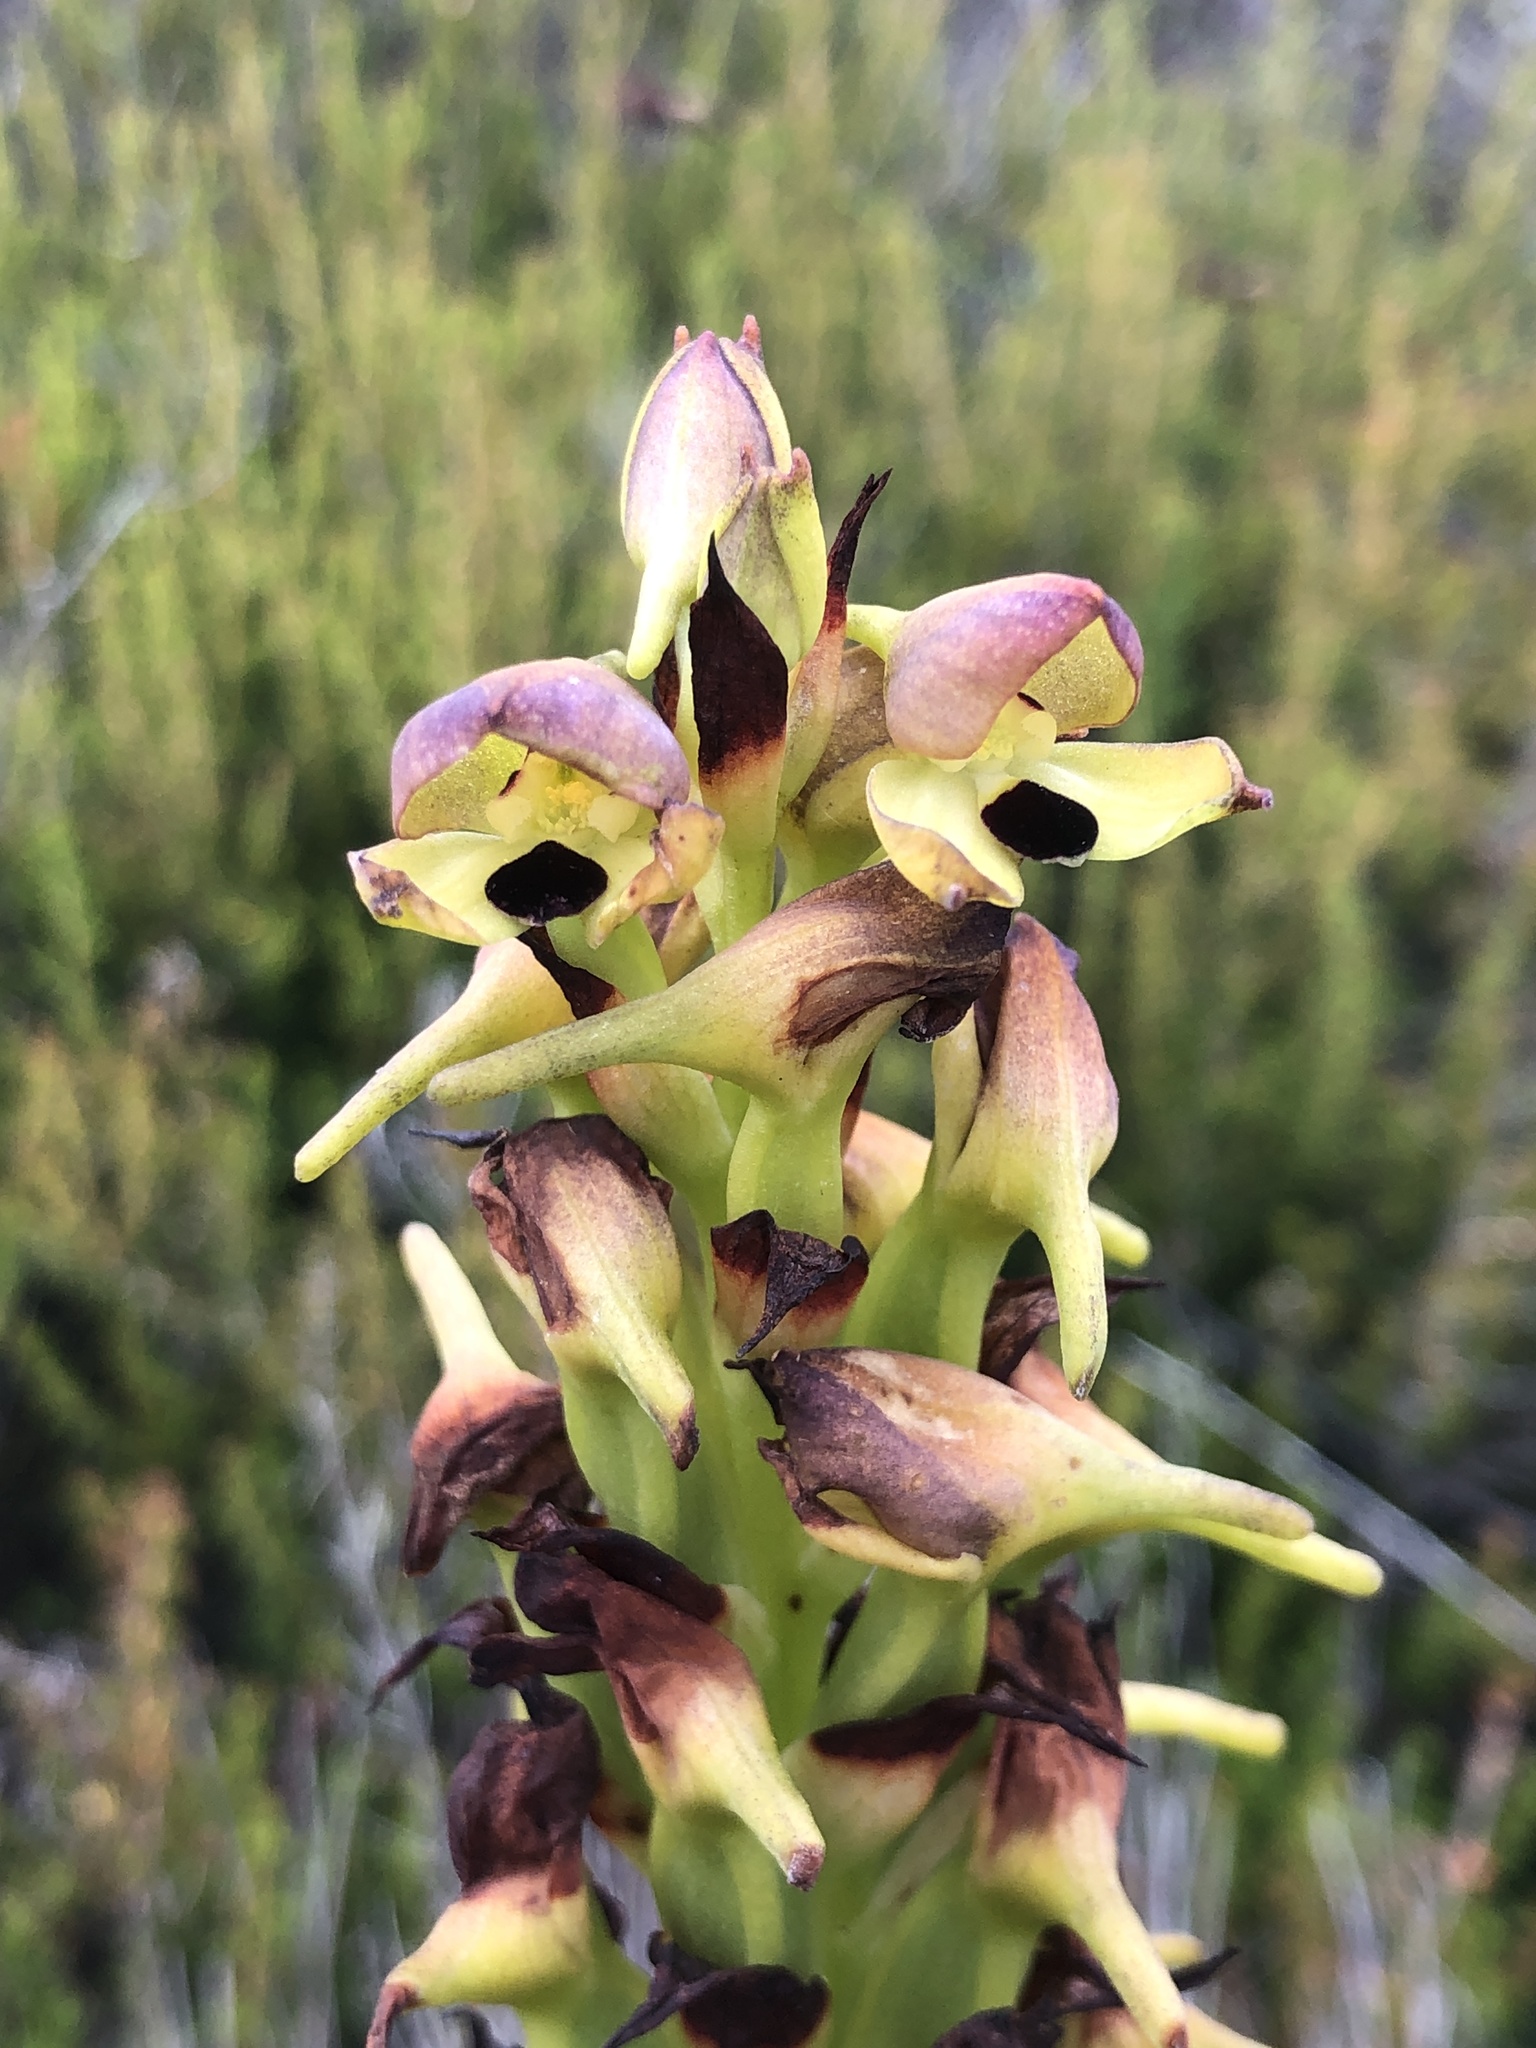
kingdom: Plantae
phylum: Tracheophyta
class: Liliopsida
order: Asparagales
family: Orchidaceae
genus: Disa
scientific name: Disa cornuta
